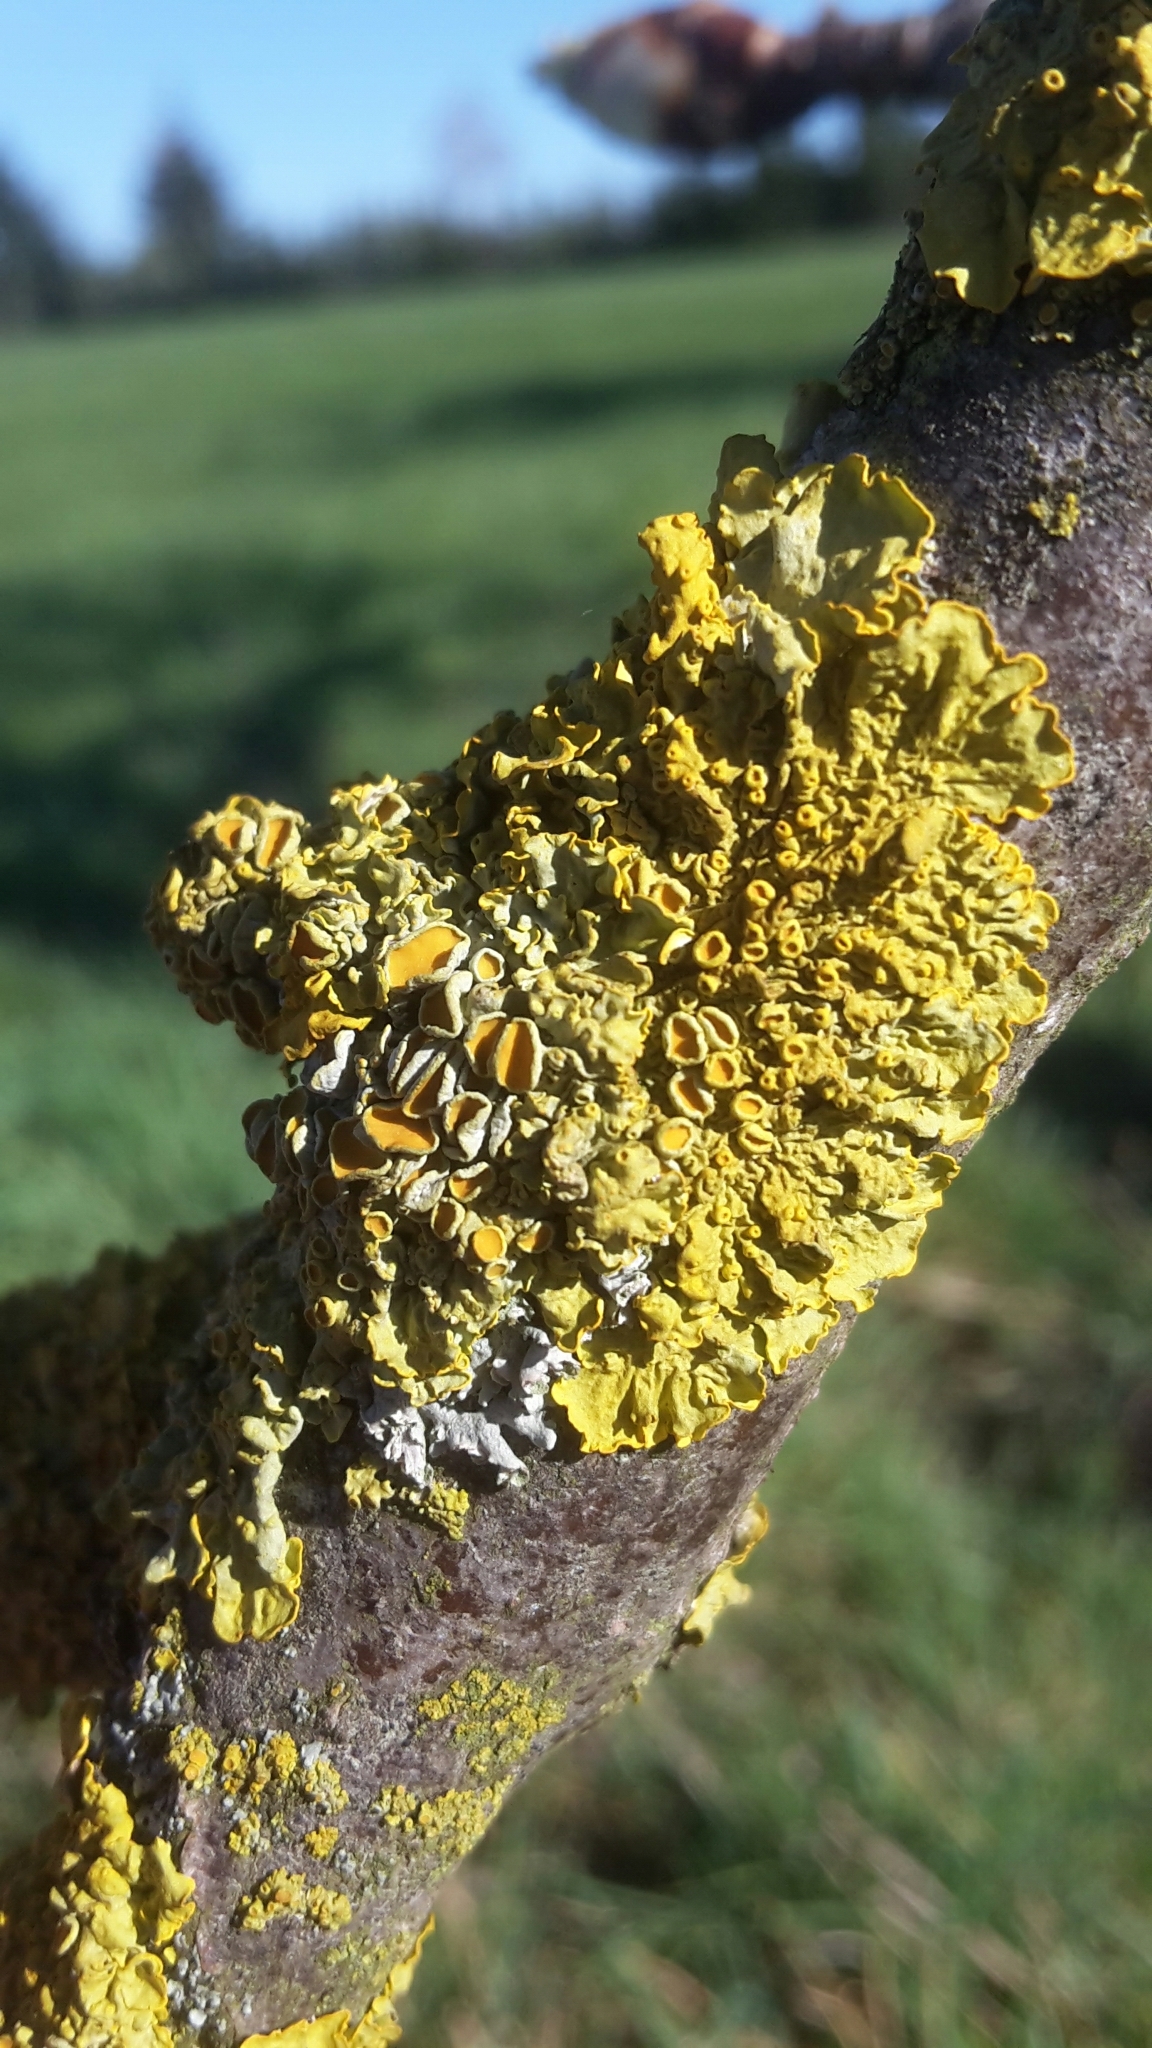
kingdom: Fungi
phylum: Ascomycota
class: Lecanoromycetes
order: Teloschistales
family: Teloschistaceae
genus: Xanthoria
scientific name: Xanthoria parietina
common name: Common orange lichen
